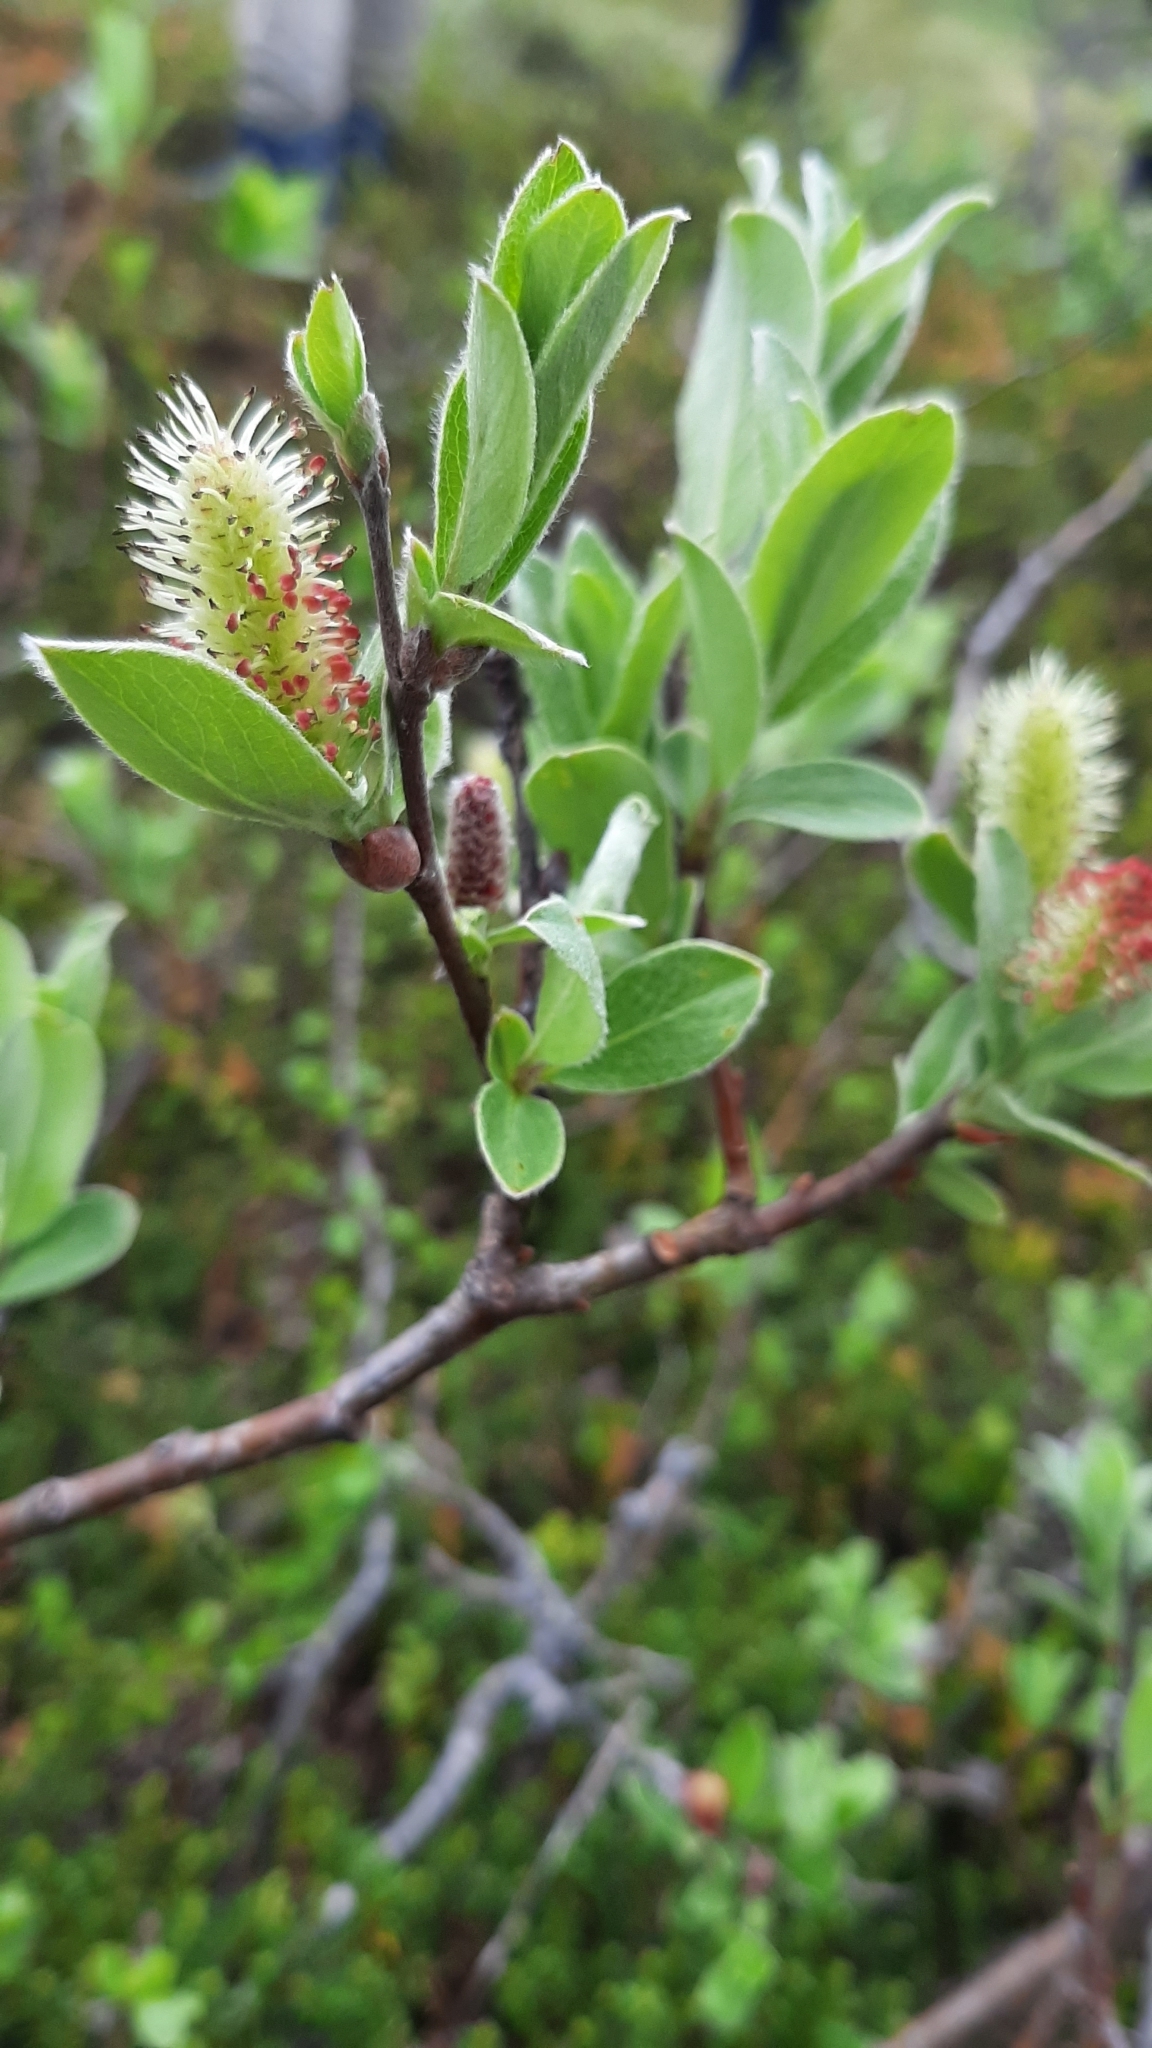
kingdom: Plantae
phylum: Tracheophyta
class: Magnoliopsida
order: Malpighiales
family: Salicaceae
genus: Salix
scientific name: Salix reptans
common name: Arctic creeping willow
